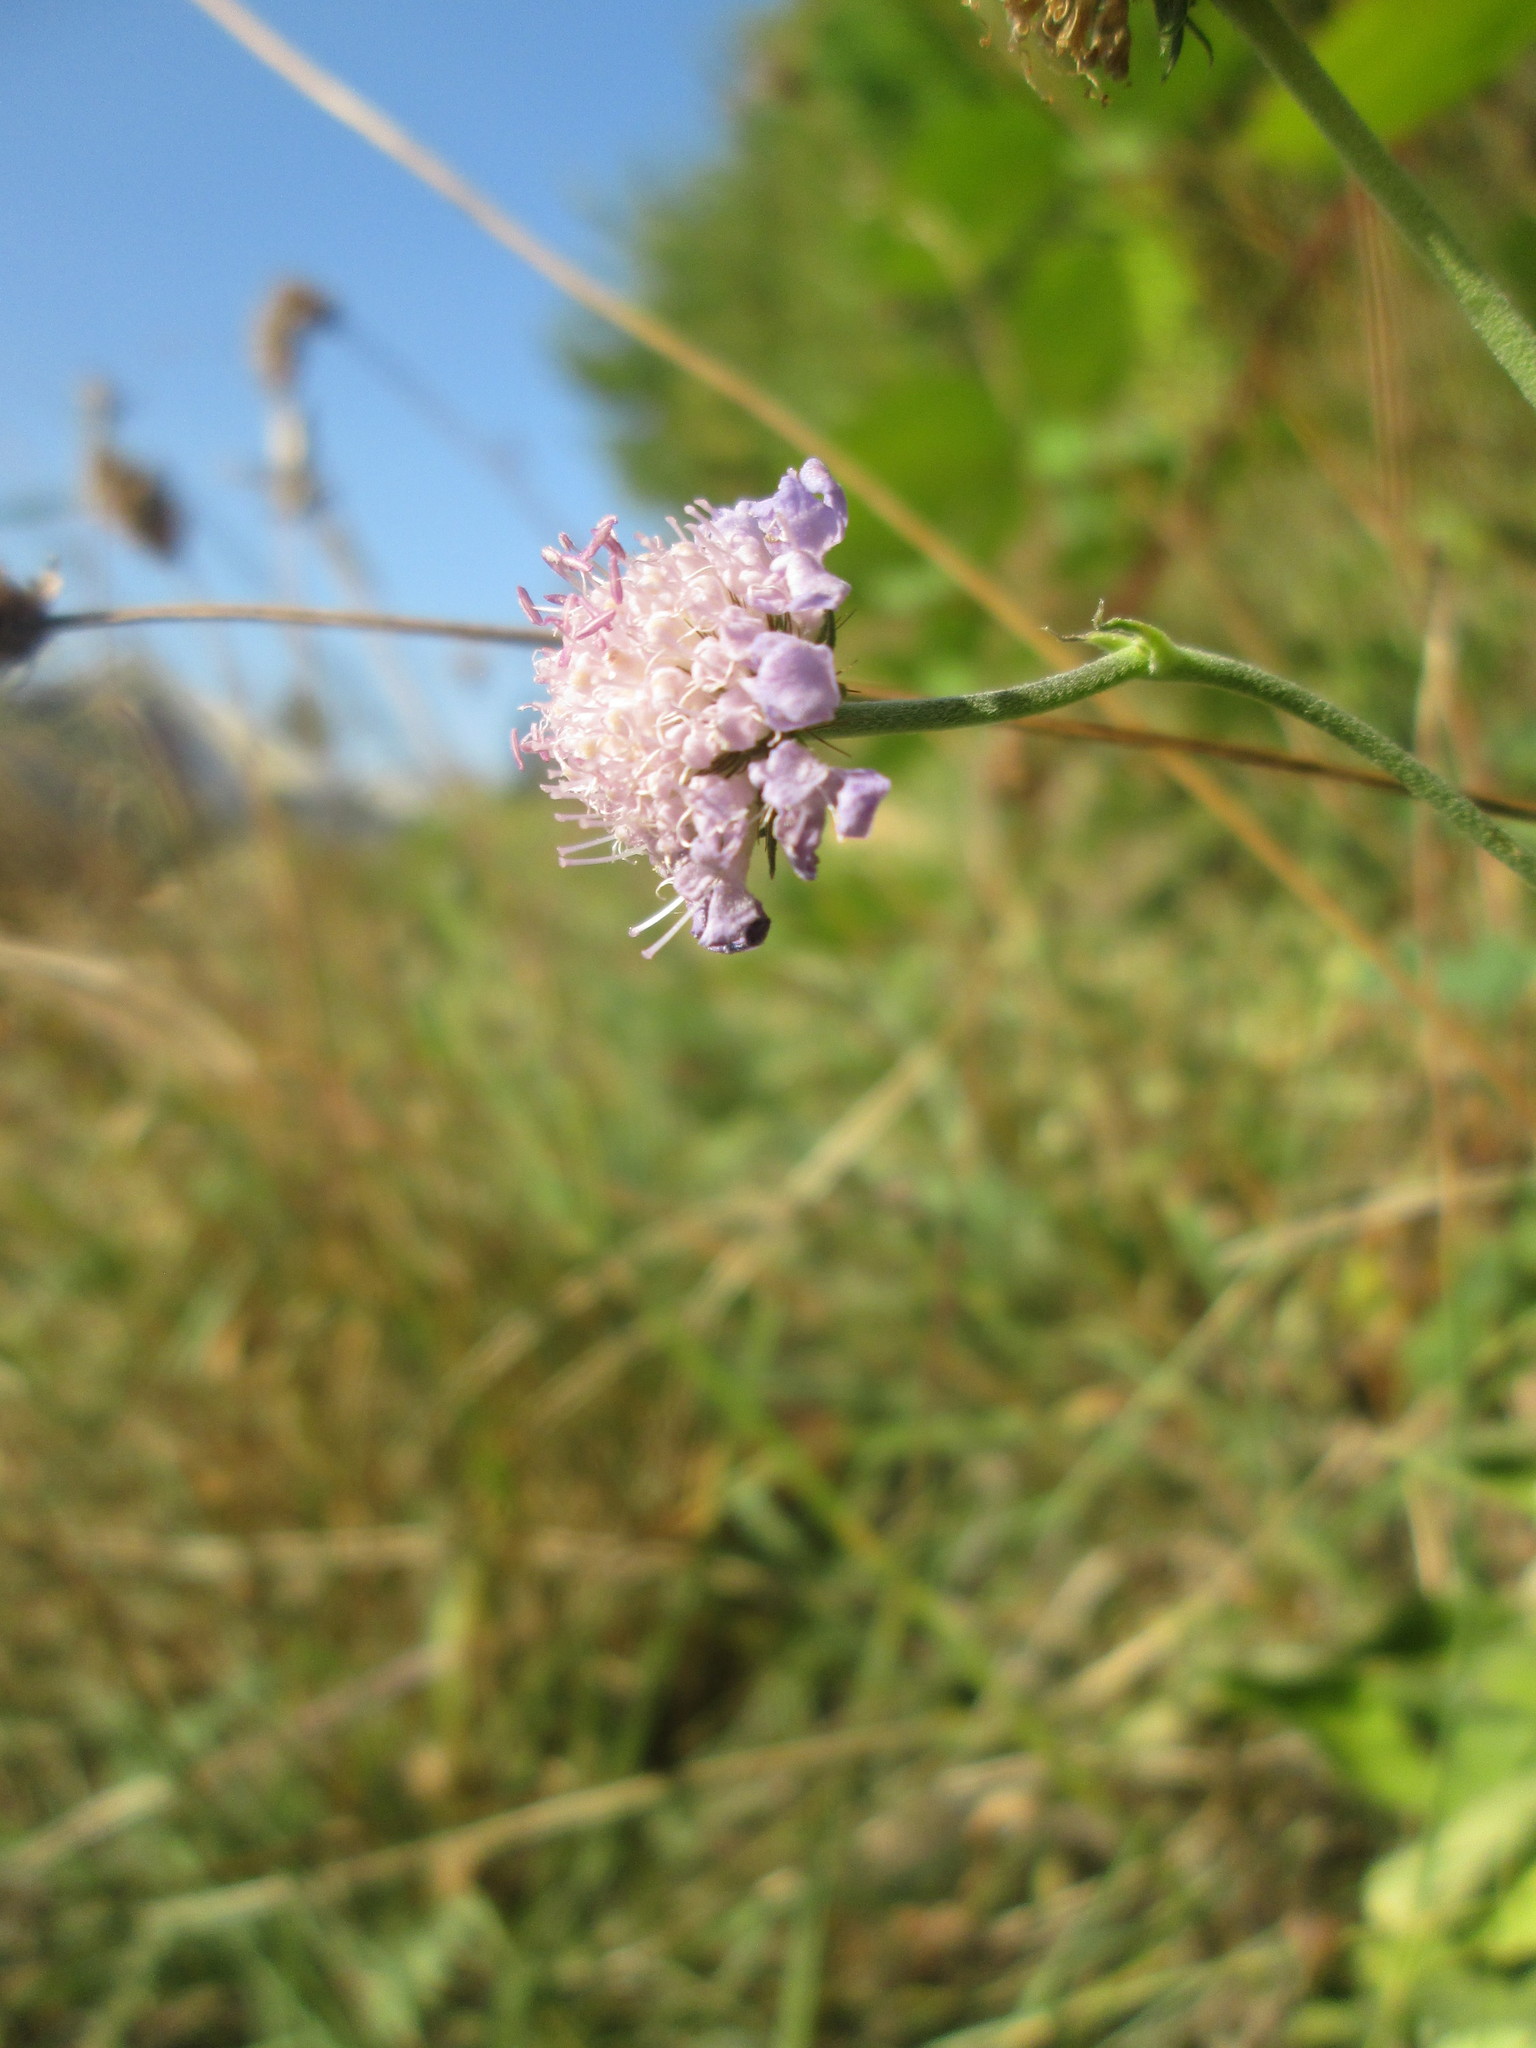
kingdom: Plantae
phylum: Tracheophyta
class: Magnoliopsida
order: Dipsacales
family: Caprifoliaceae
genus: Knautia
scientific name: Knautia arvensis
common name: Field scabiosa
